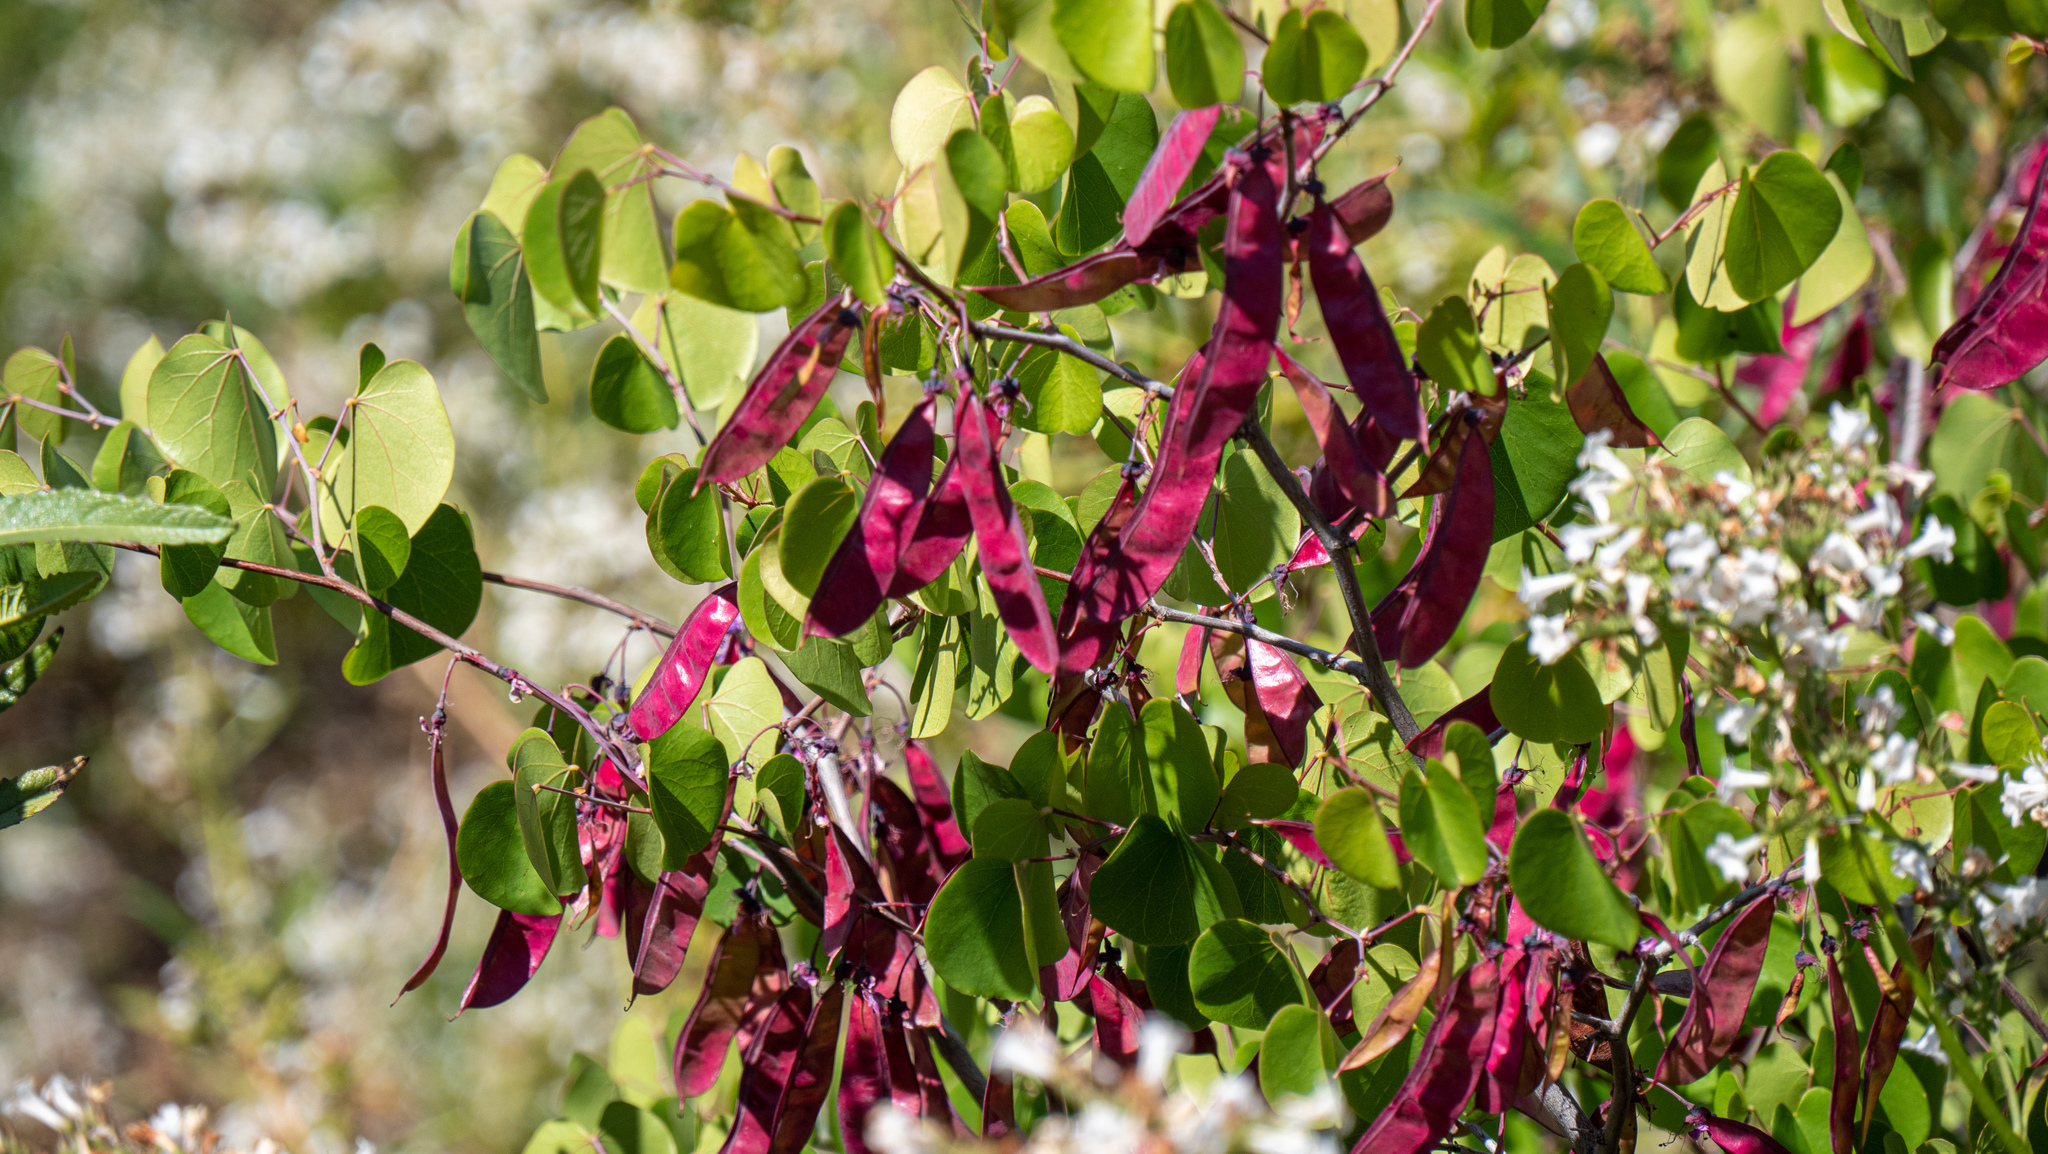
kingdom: Plantae
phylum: Tracheophyta
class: Magnoliopsida
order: Fabales
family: Fabaceae
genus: Cercis
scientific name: Cercis occidentalis
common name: California redbud
